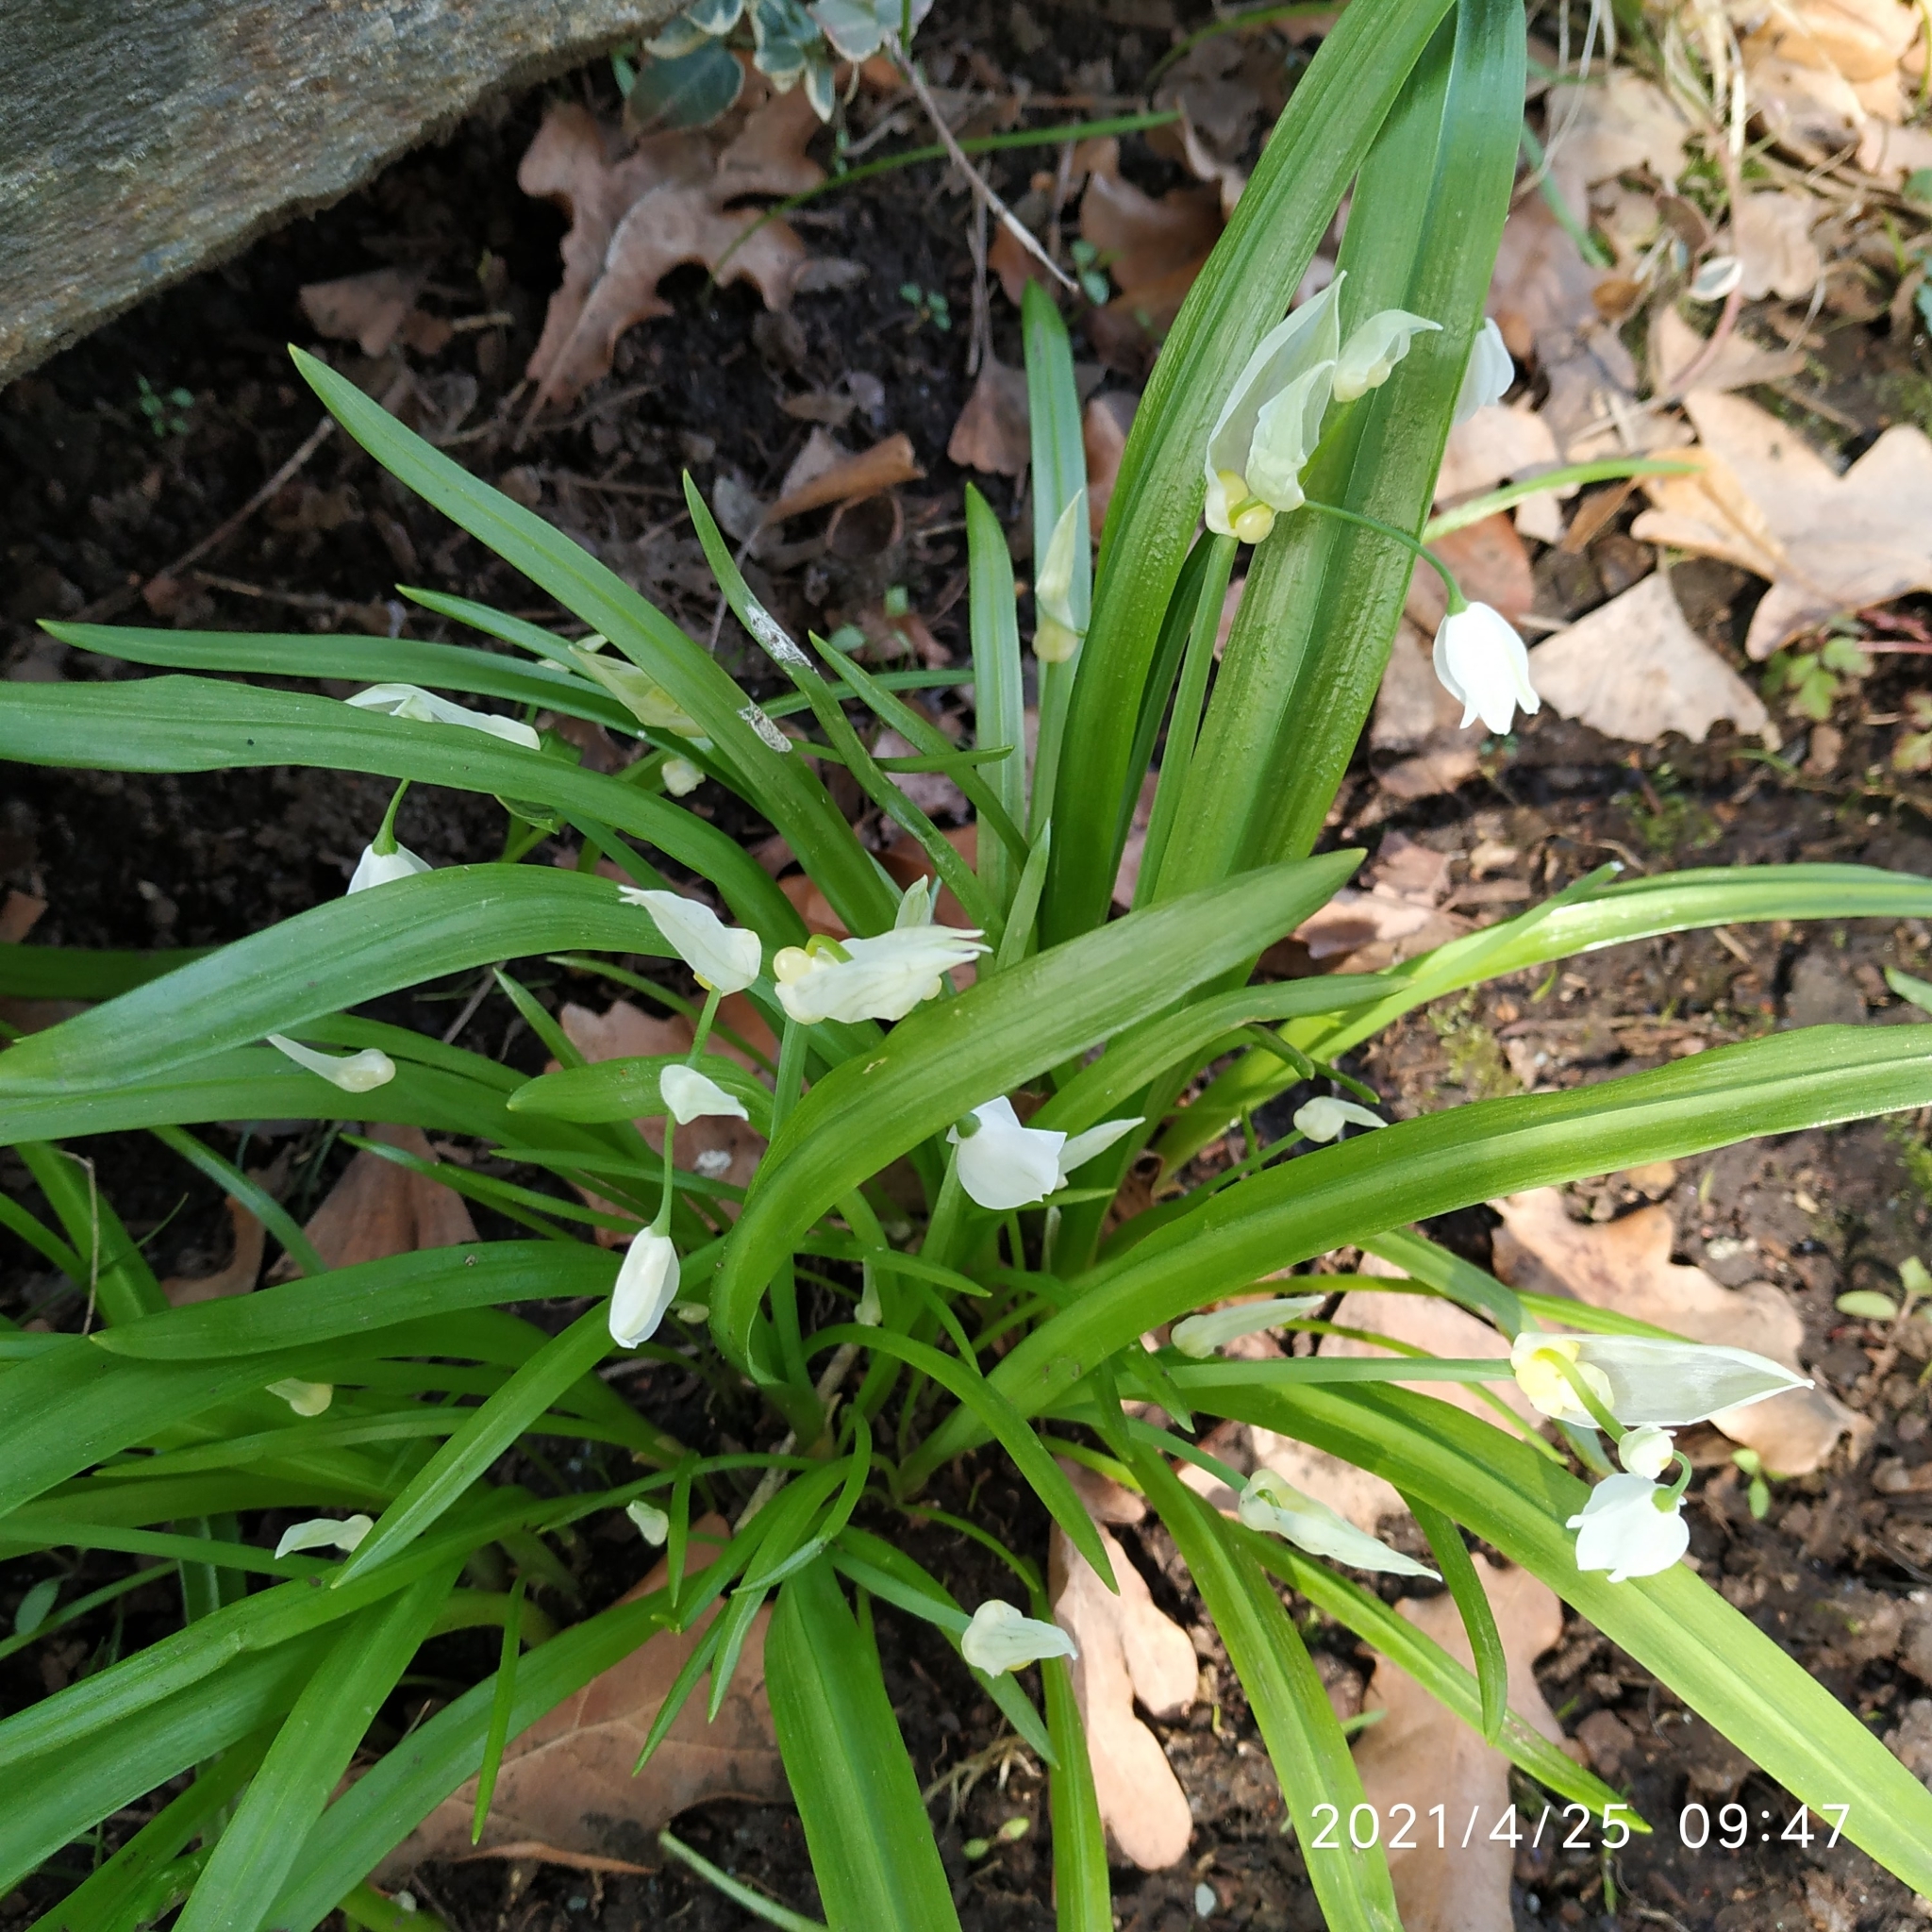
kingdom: Plantae
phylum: Tracheophyta
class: Liliopsida
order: Asparagales
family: Amaryllidaceae
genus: Allium
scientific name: Allium paradoxum
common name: Few-flowered garlic
